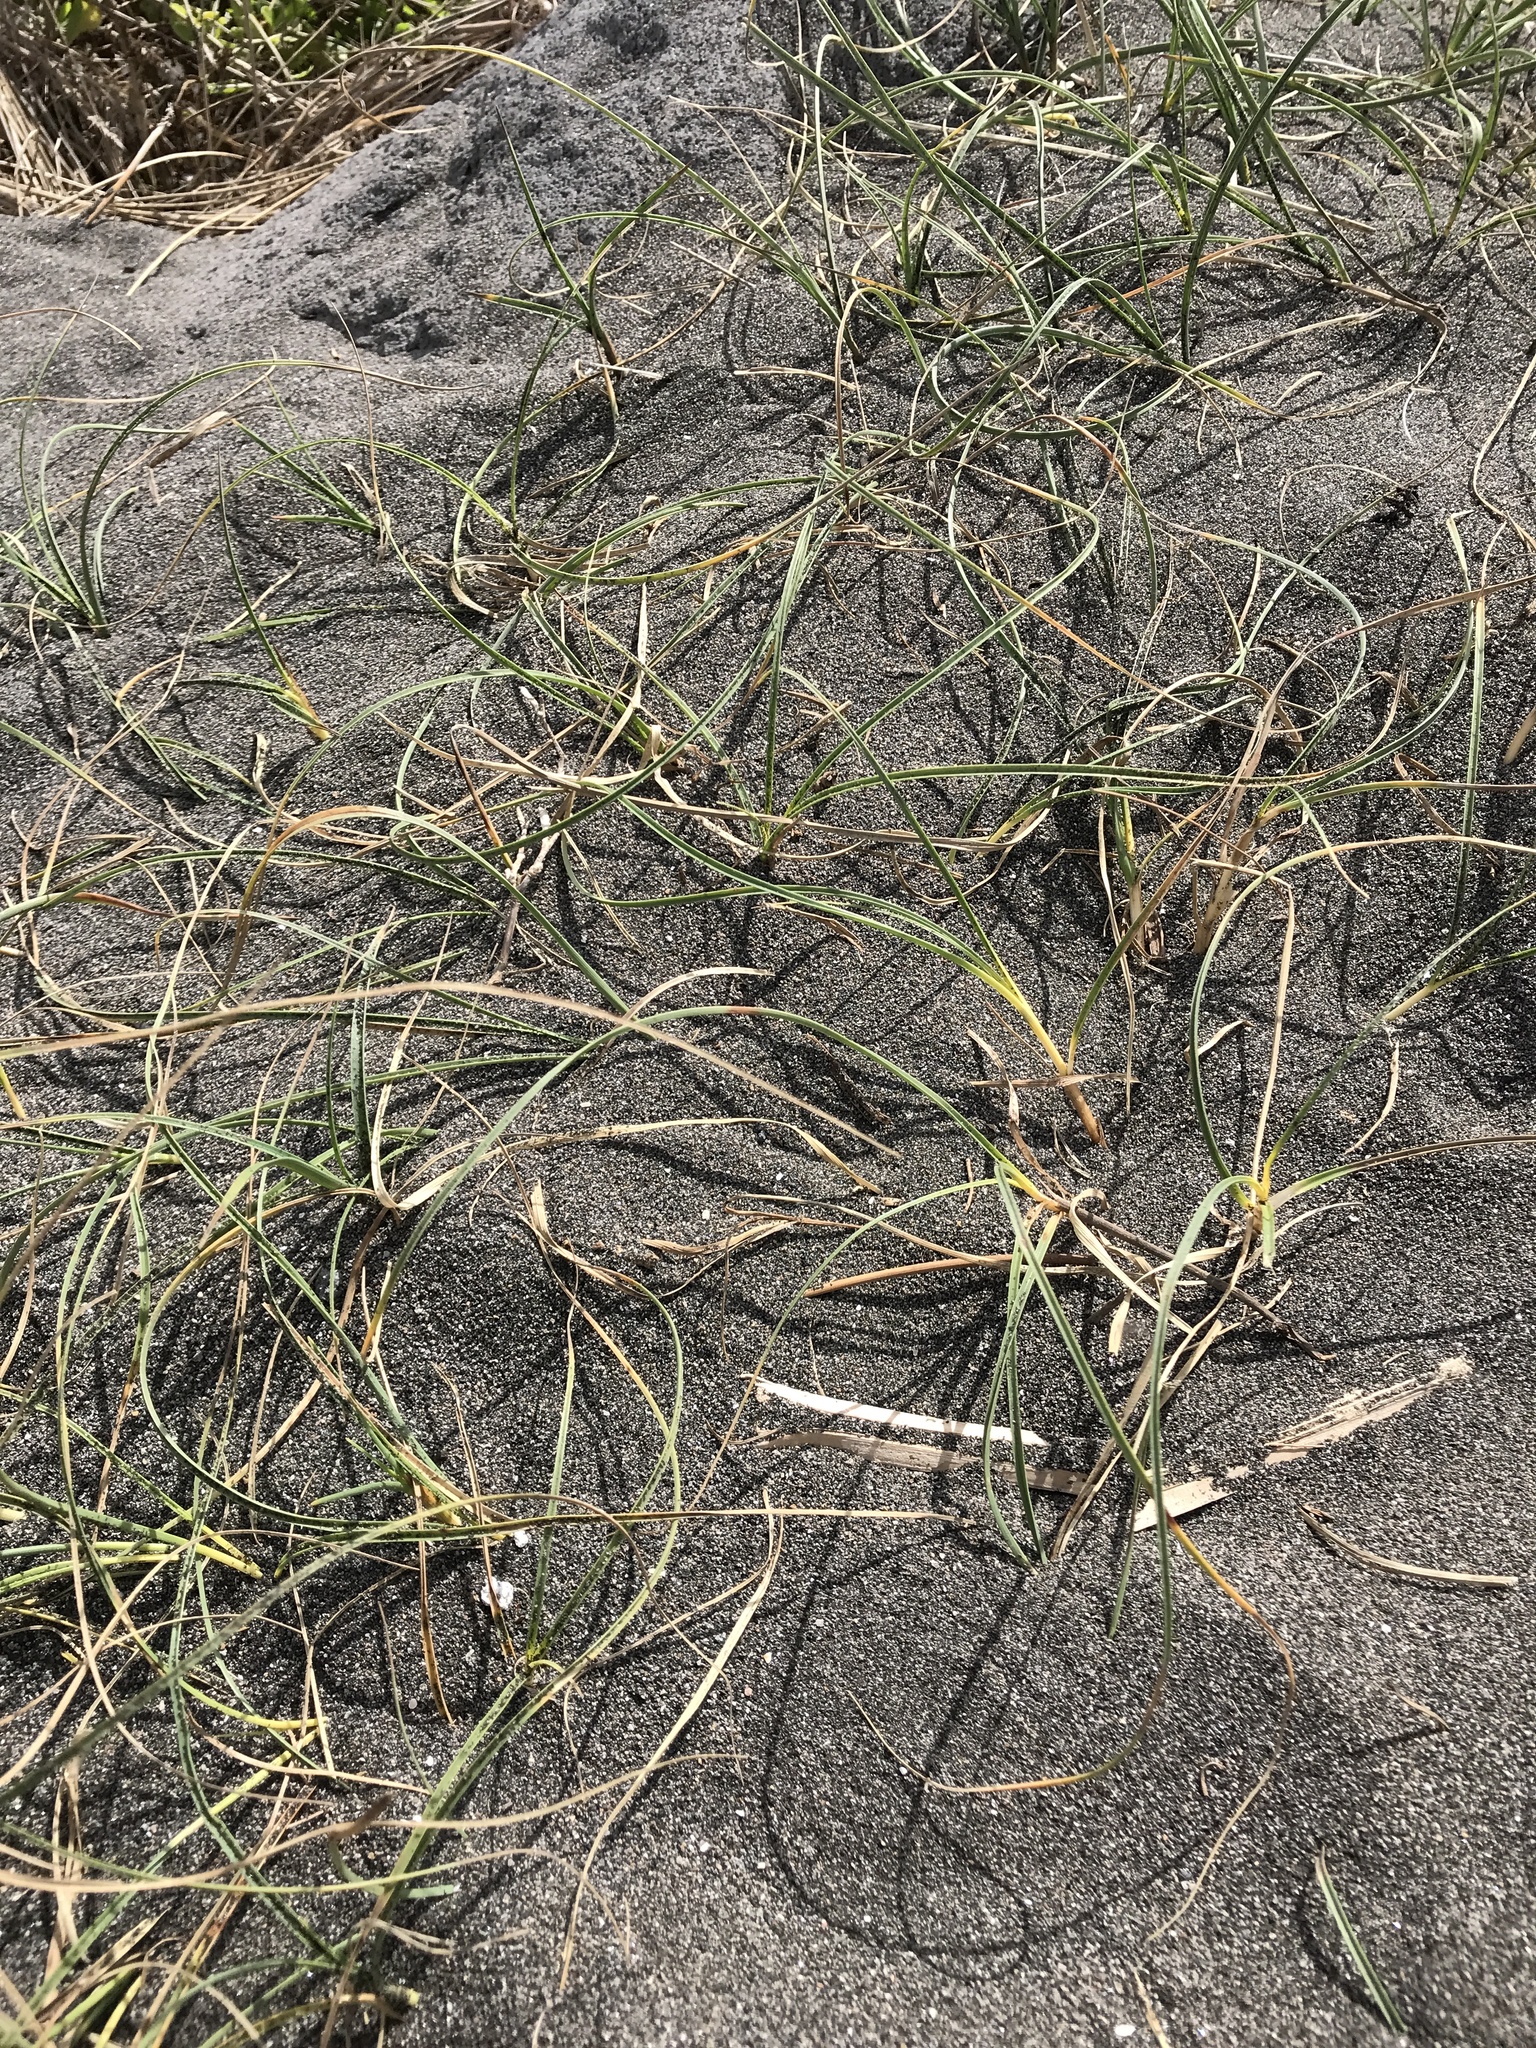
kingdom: Plantae
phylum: Tracheophyta
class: Liliopsida
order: Poales
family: Cyperaceae
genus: Carex
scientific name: Carex pumila
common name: Dwarf sedge
